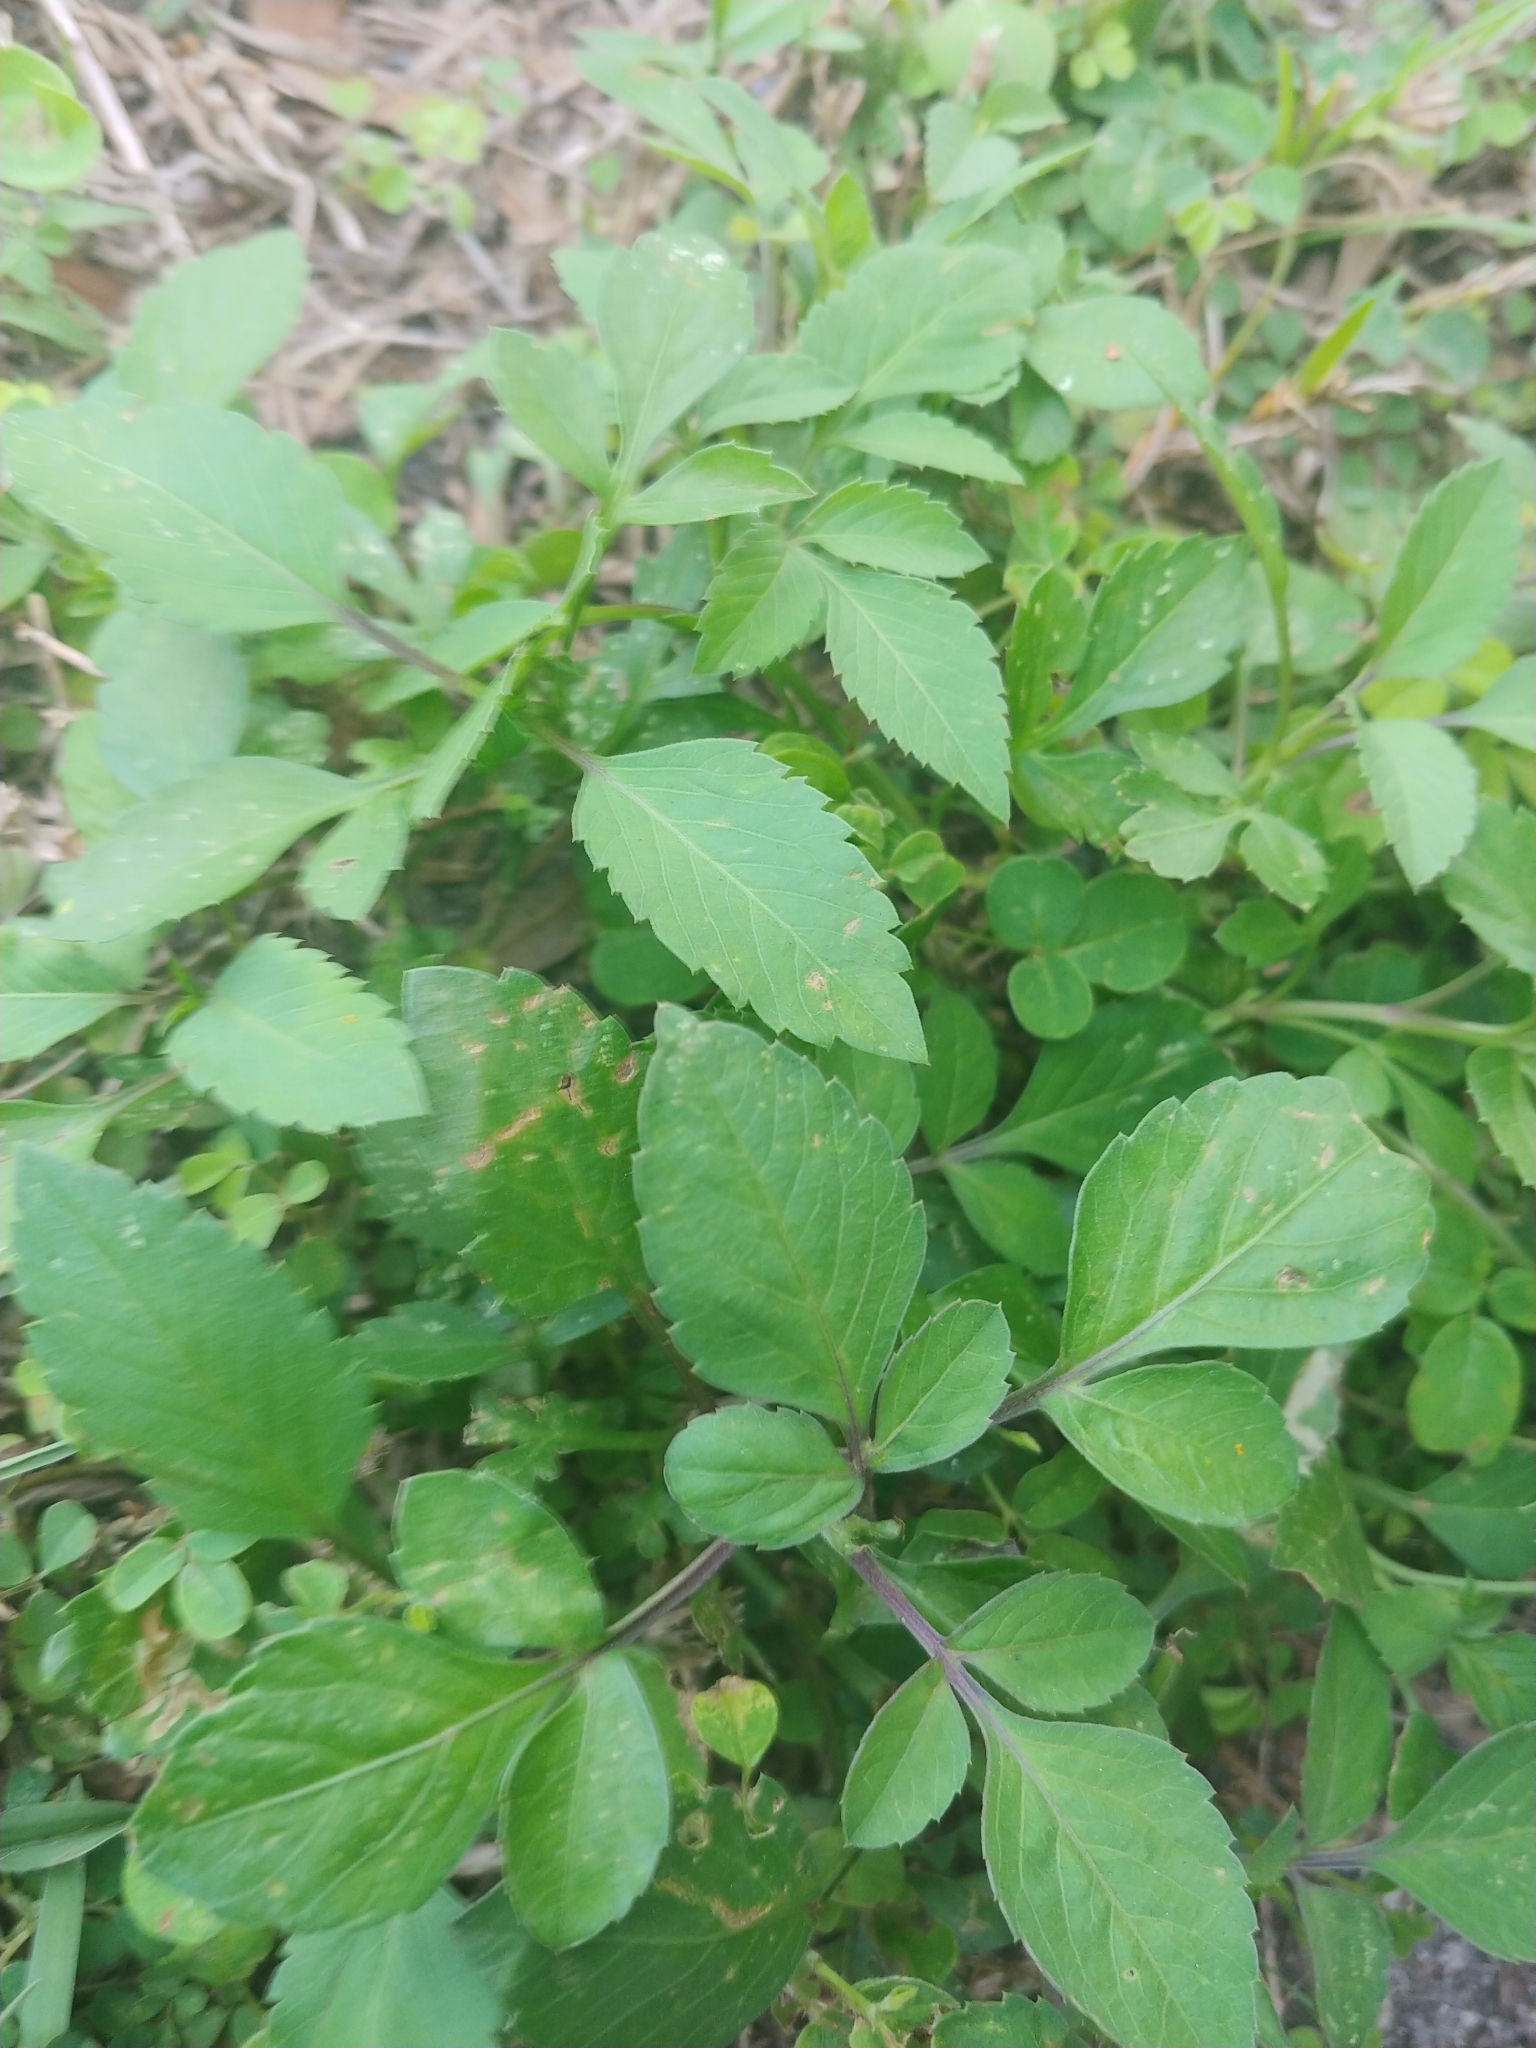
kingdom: Plantae
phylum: Tracheophyta
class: Magnoliopsida
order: Asterales
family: Asteraceae
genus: Bidens
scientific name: Bidens alba
